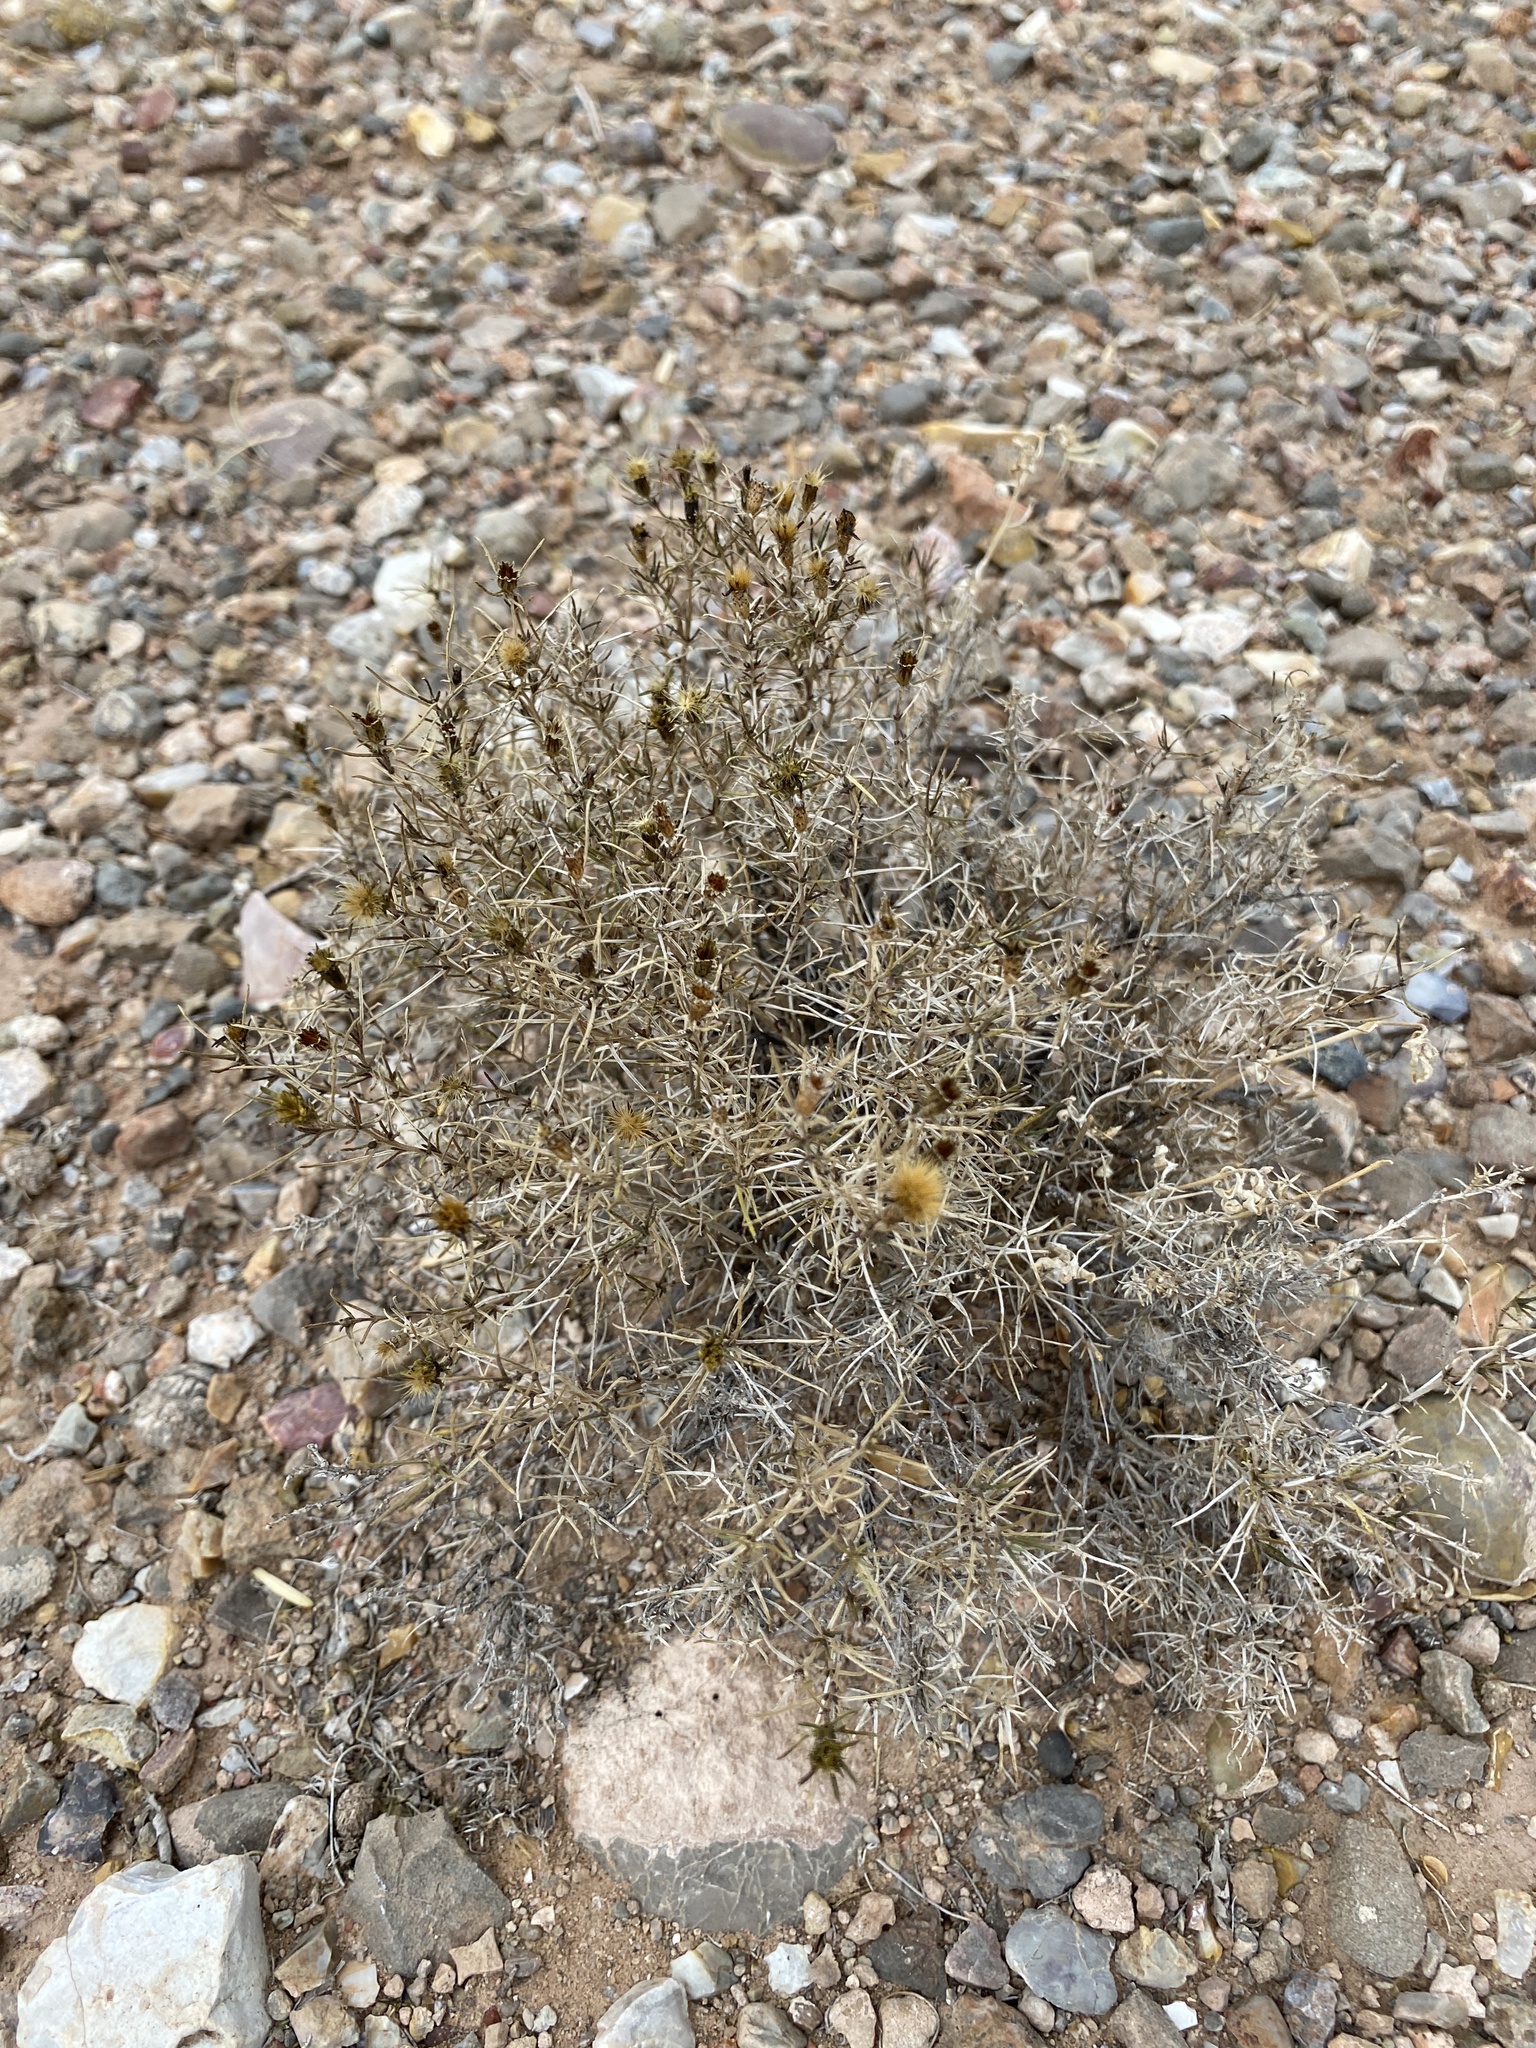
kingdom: Plantae
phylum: Tracheophyta
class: Magnoliopsida
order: Asterales
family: Asteraceae
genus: Thymophylla
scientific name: Thymophylla acerosa
